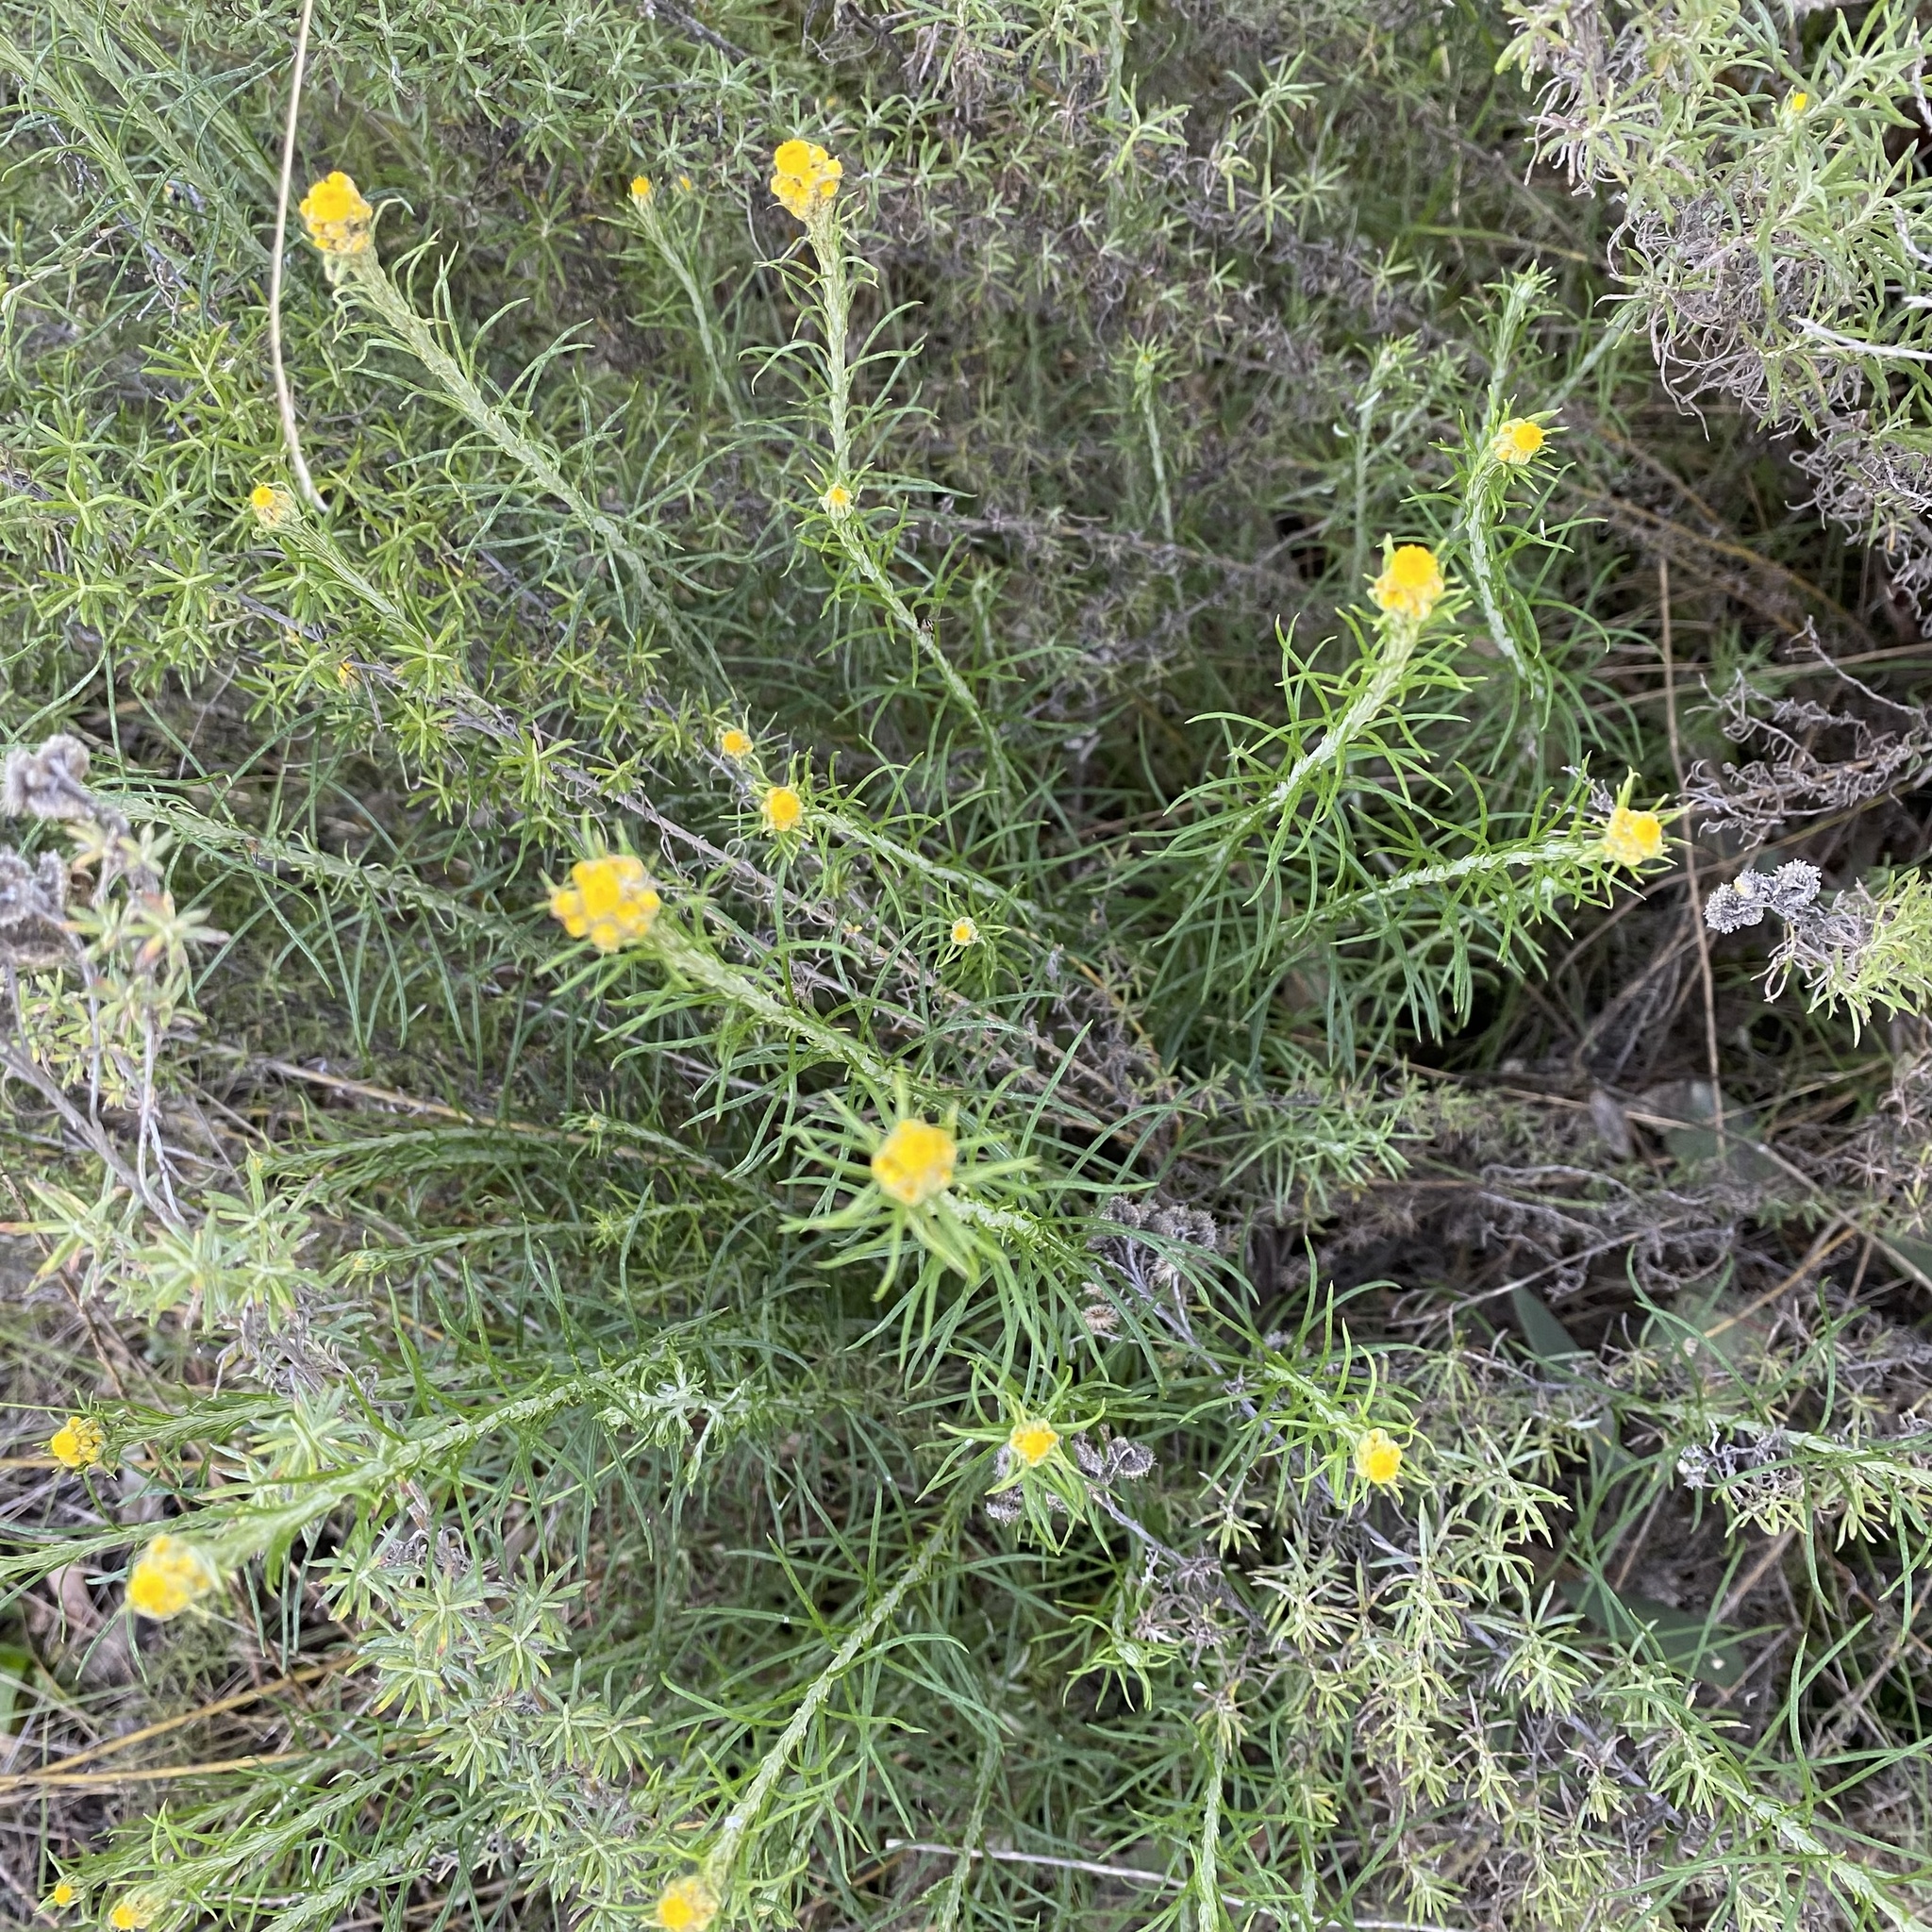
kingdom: Plantae
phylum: Tracheophyta
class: Magnoliopsida
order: Asterales
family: Asteraceae
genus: Chrysocephalum
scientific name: Chrysocephalum semipapposum
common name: Clustered everlasting
